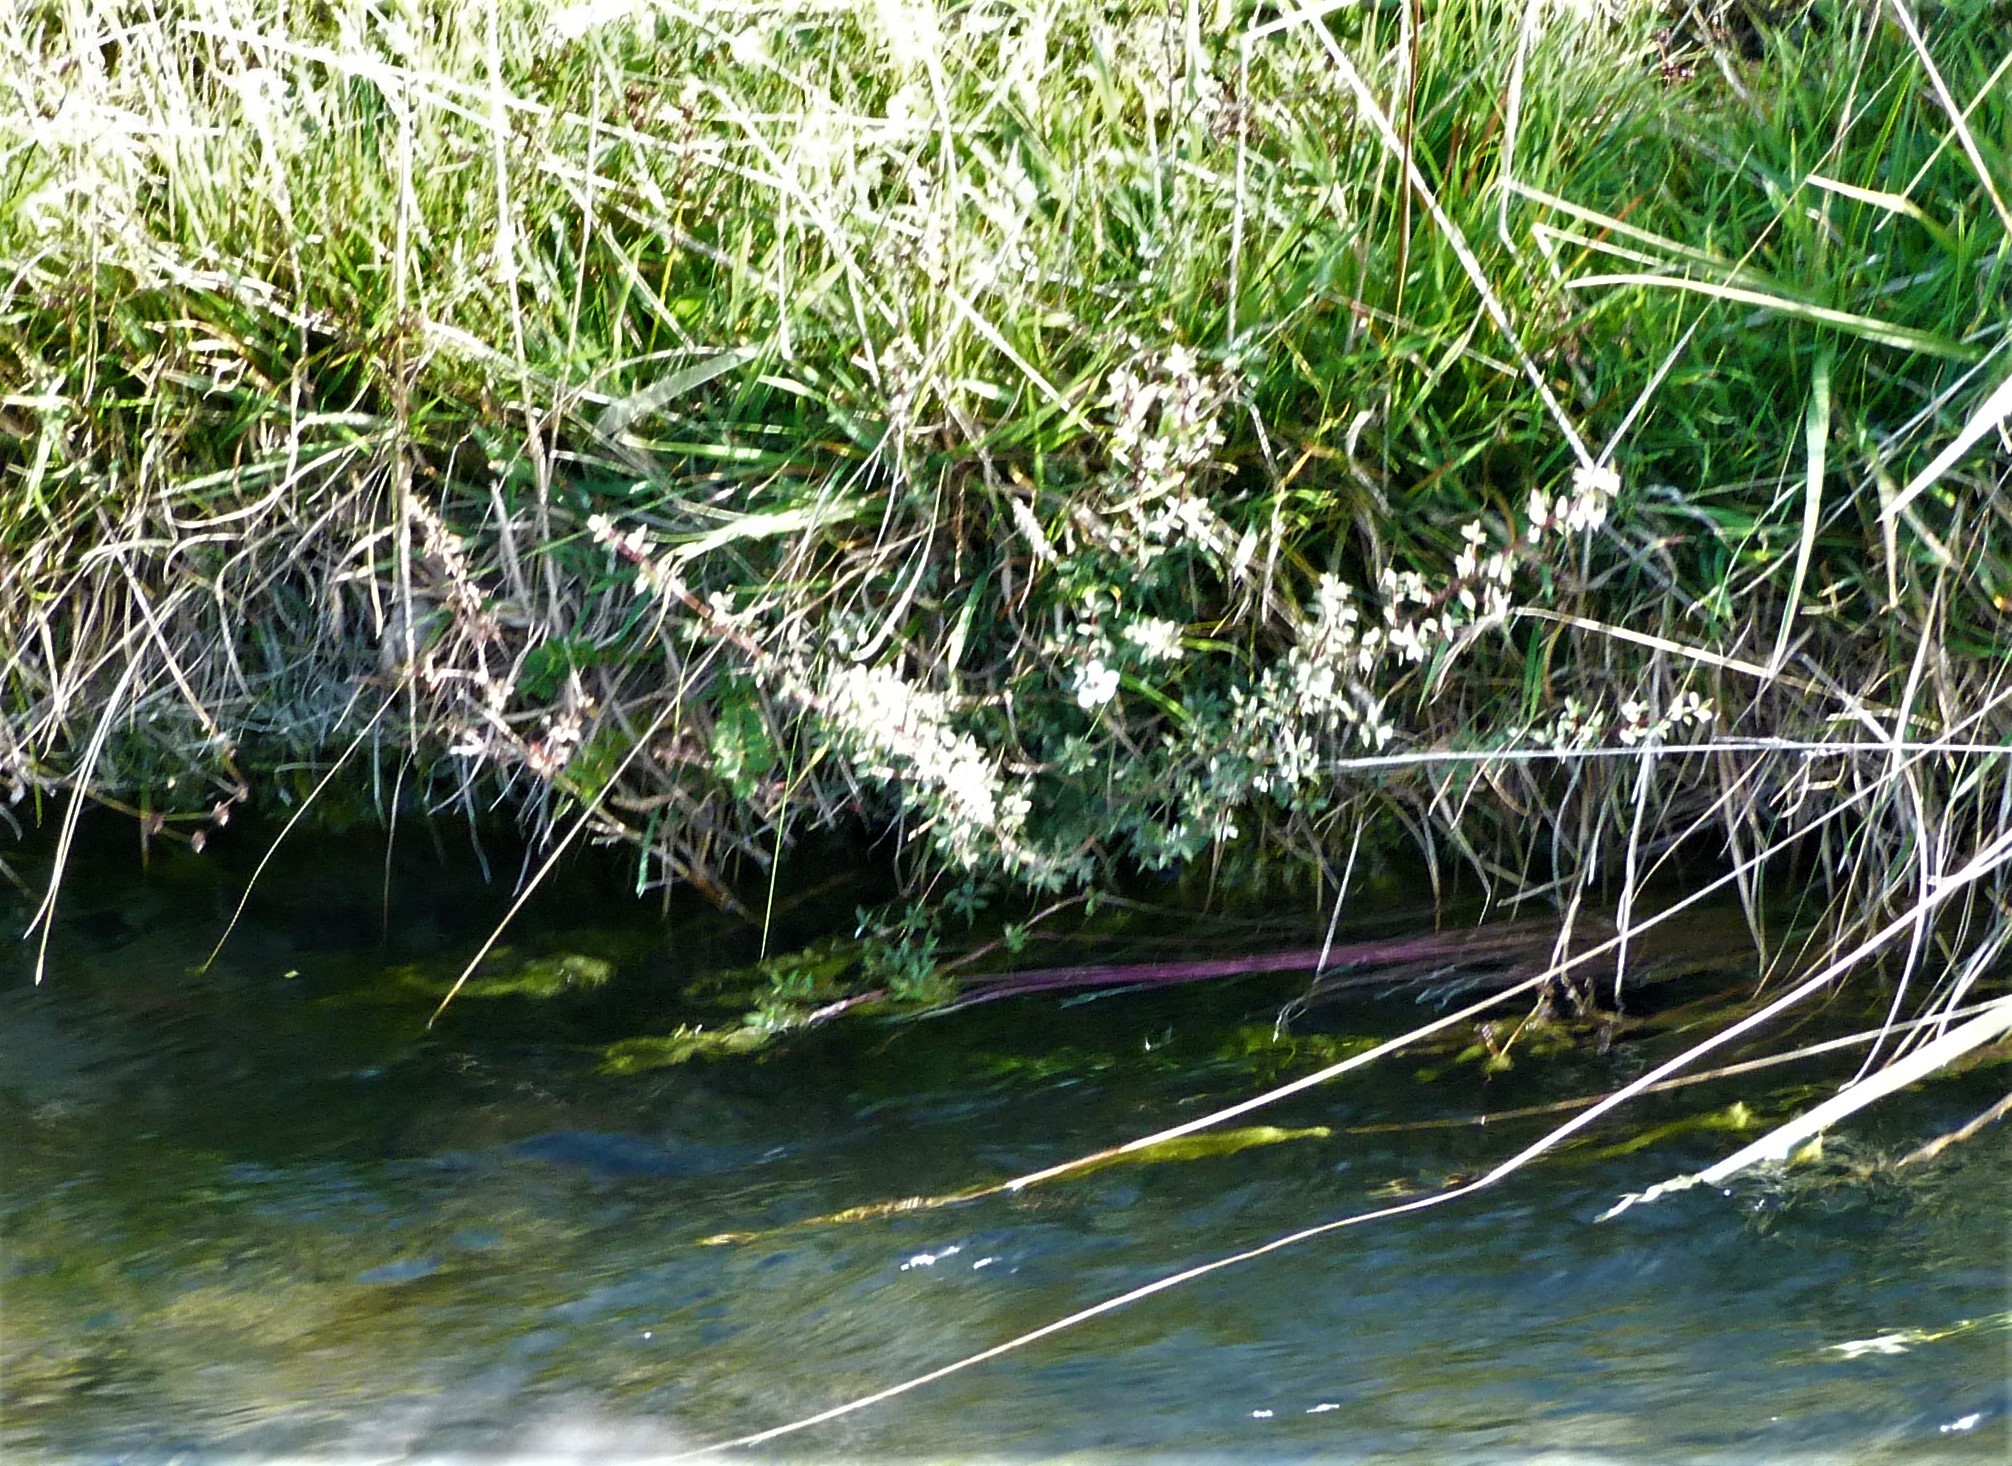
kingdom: Plantae
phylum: Tracheophyta
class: Magnoliopsida
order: Myrtales
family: Myrtaceae
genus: Leptospermum
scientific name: Leptospermum scoparium
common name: Broom tea-tree
